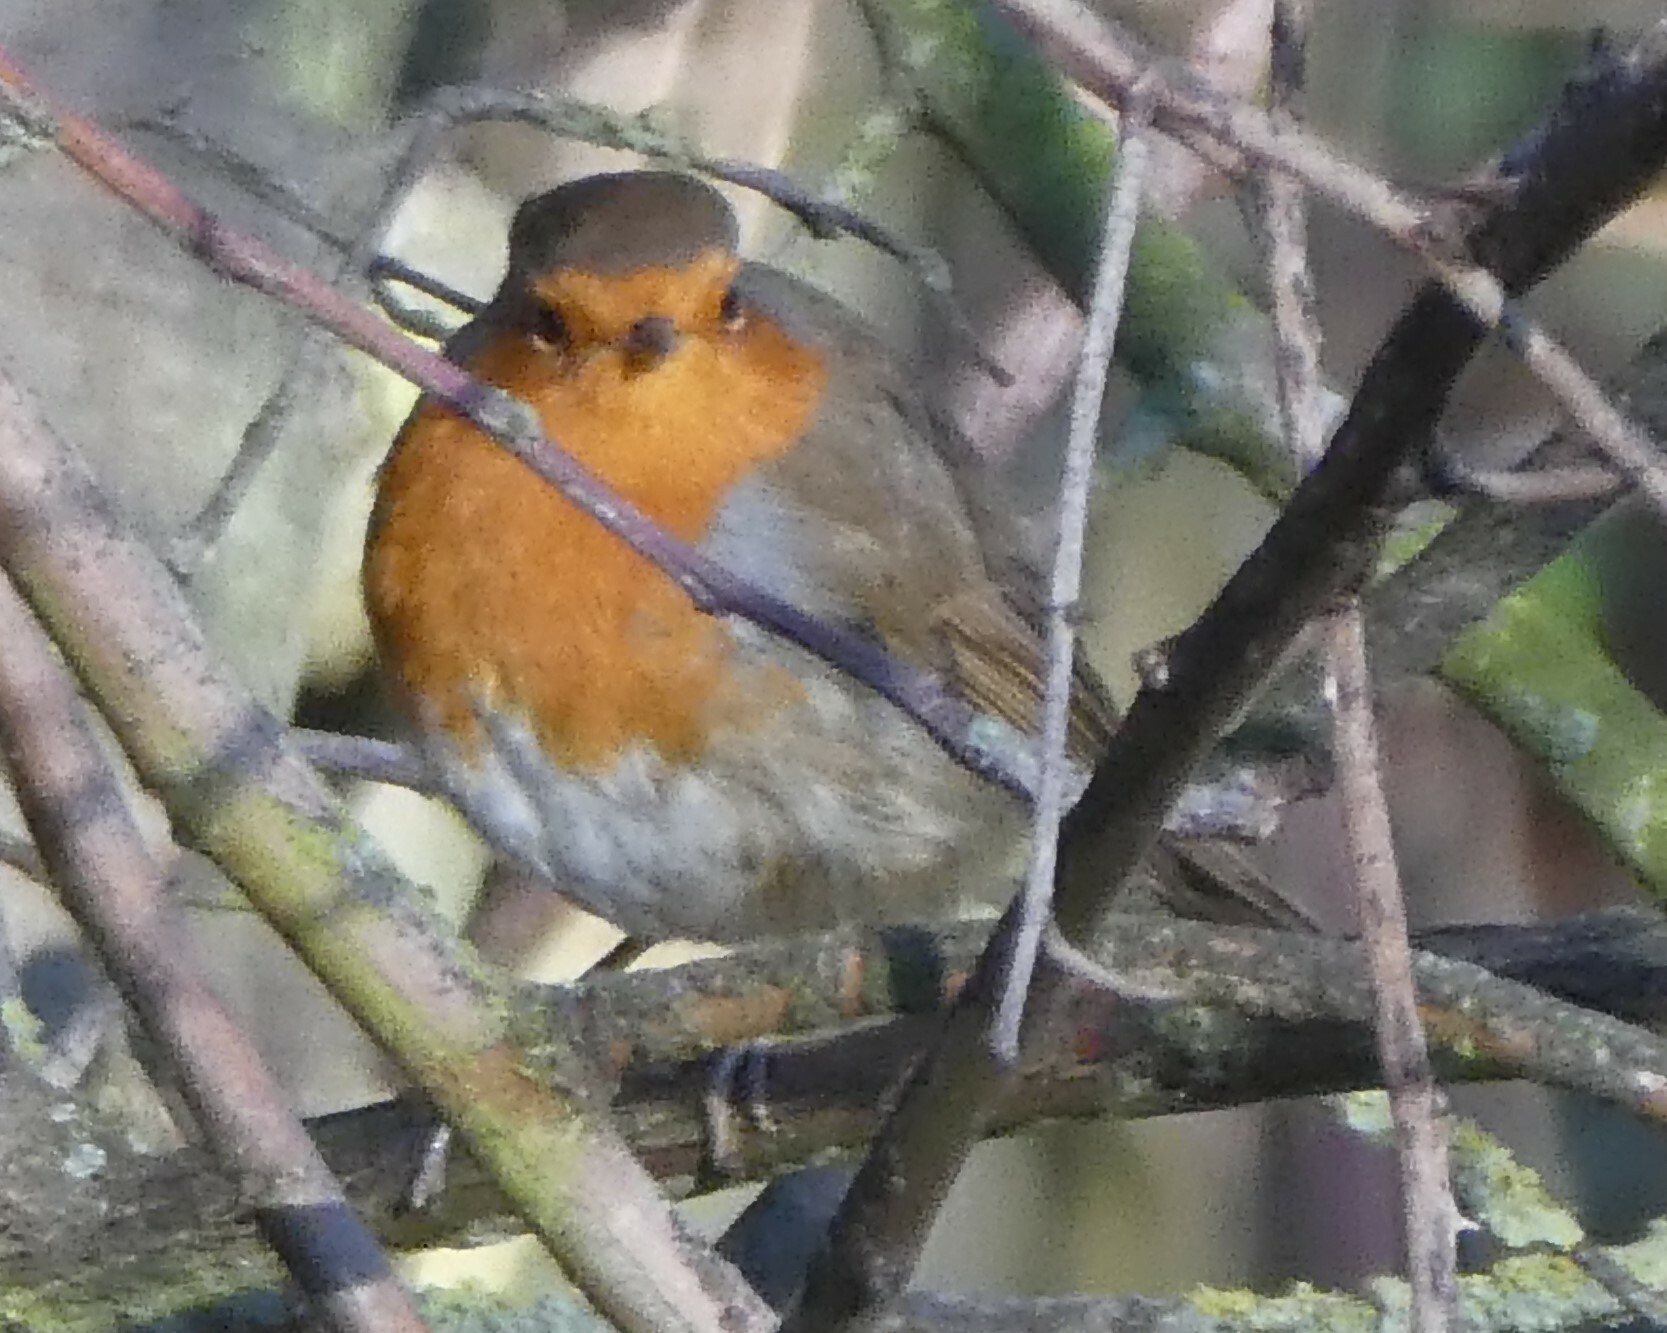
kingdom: Animalia
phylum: Chordata
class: Aves
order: Passeriformes
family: Muscicapidae
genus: Erithacus
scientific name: Erithacus rubecula
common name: European robin
